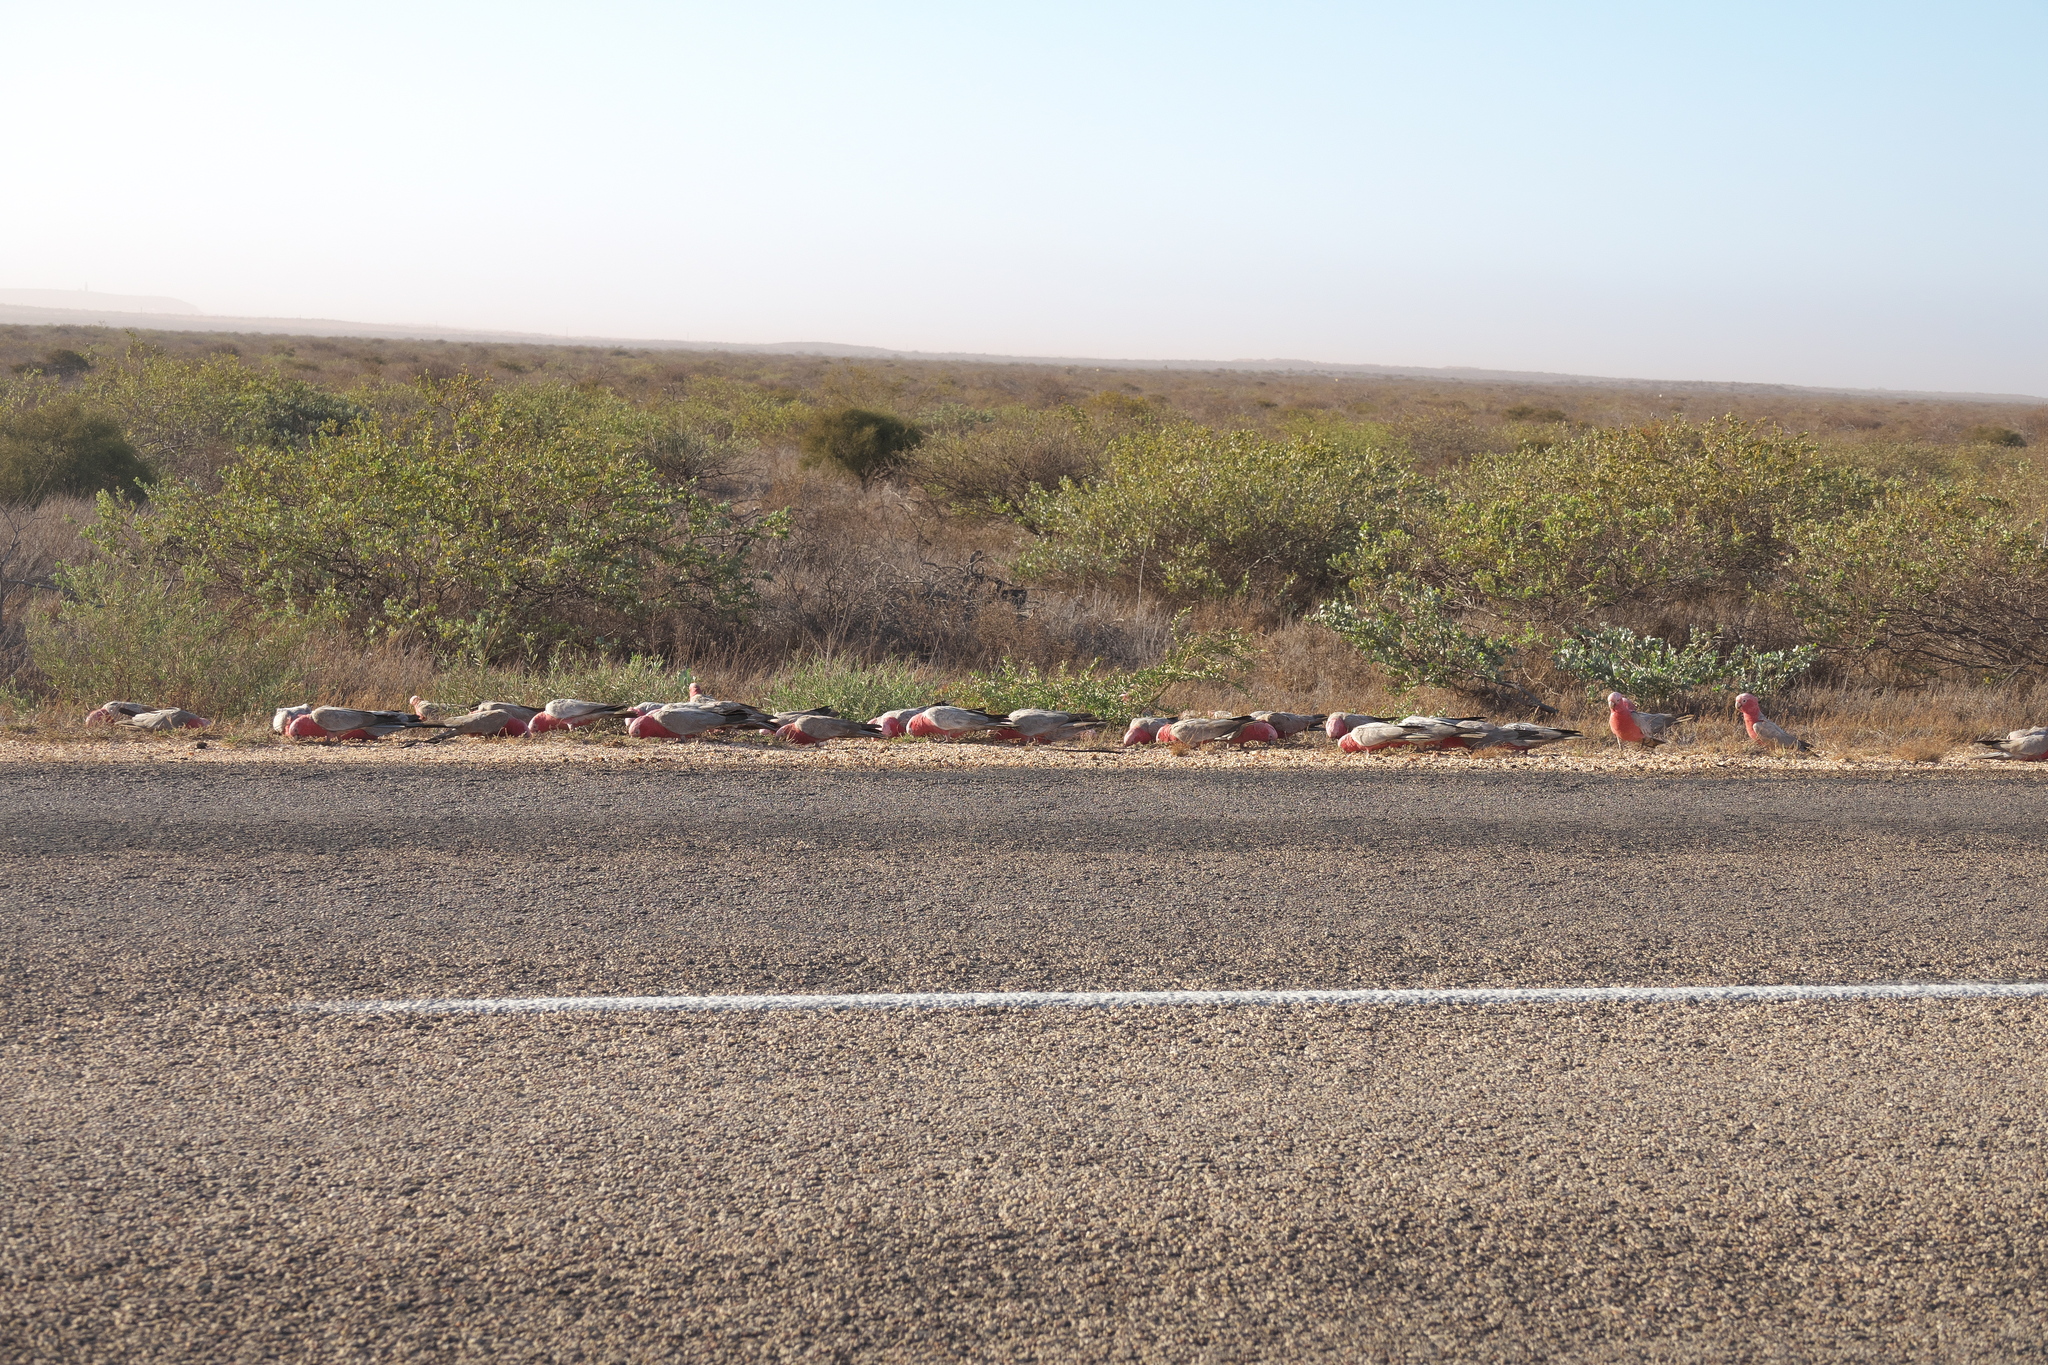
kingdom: Animalia
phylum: Chordata
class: Aves
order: Psittaciformes
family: Psittacidae
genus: Eolophus
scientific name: Eolophus roseicapilla
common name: Galah
